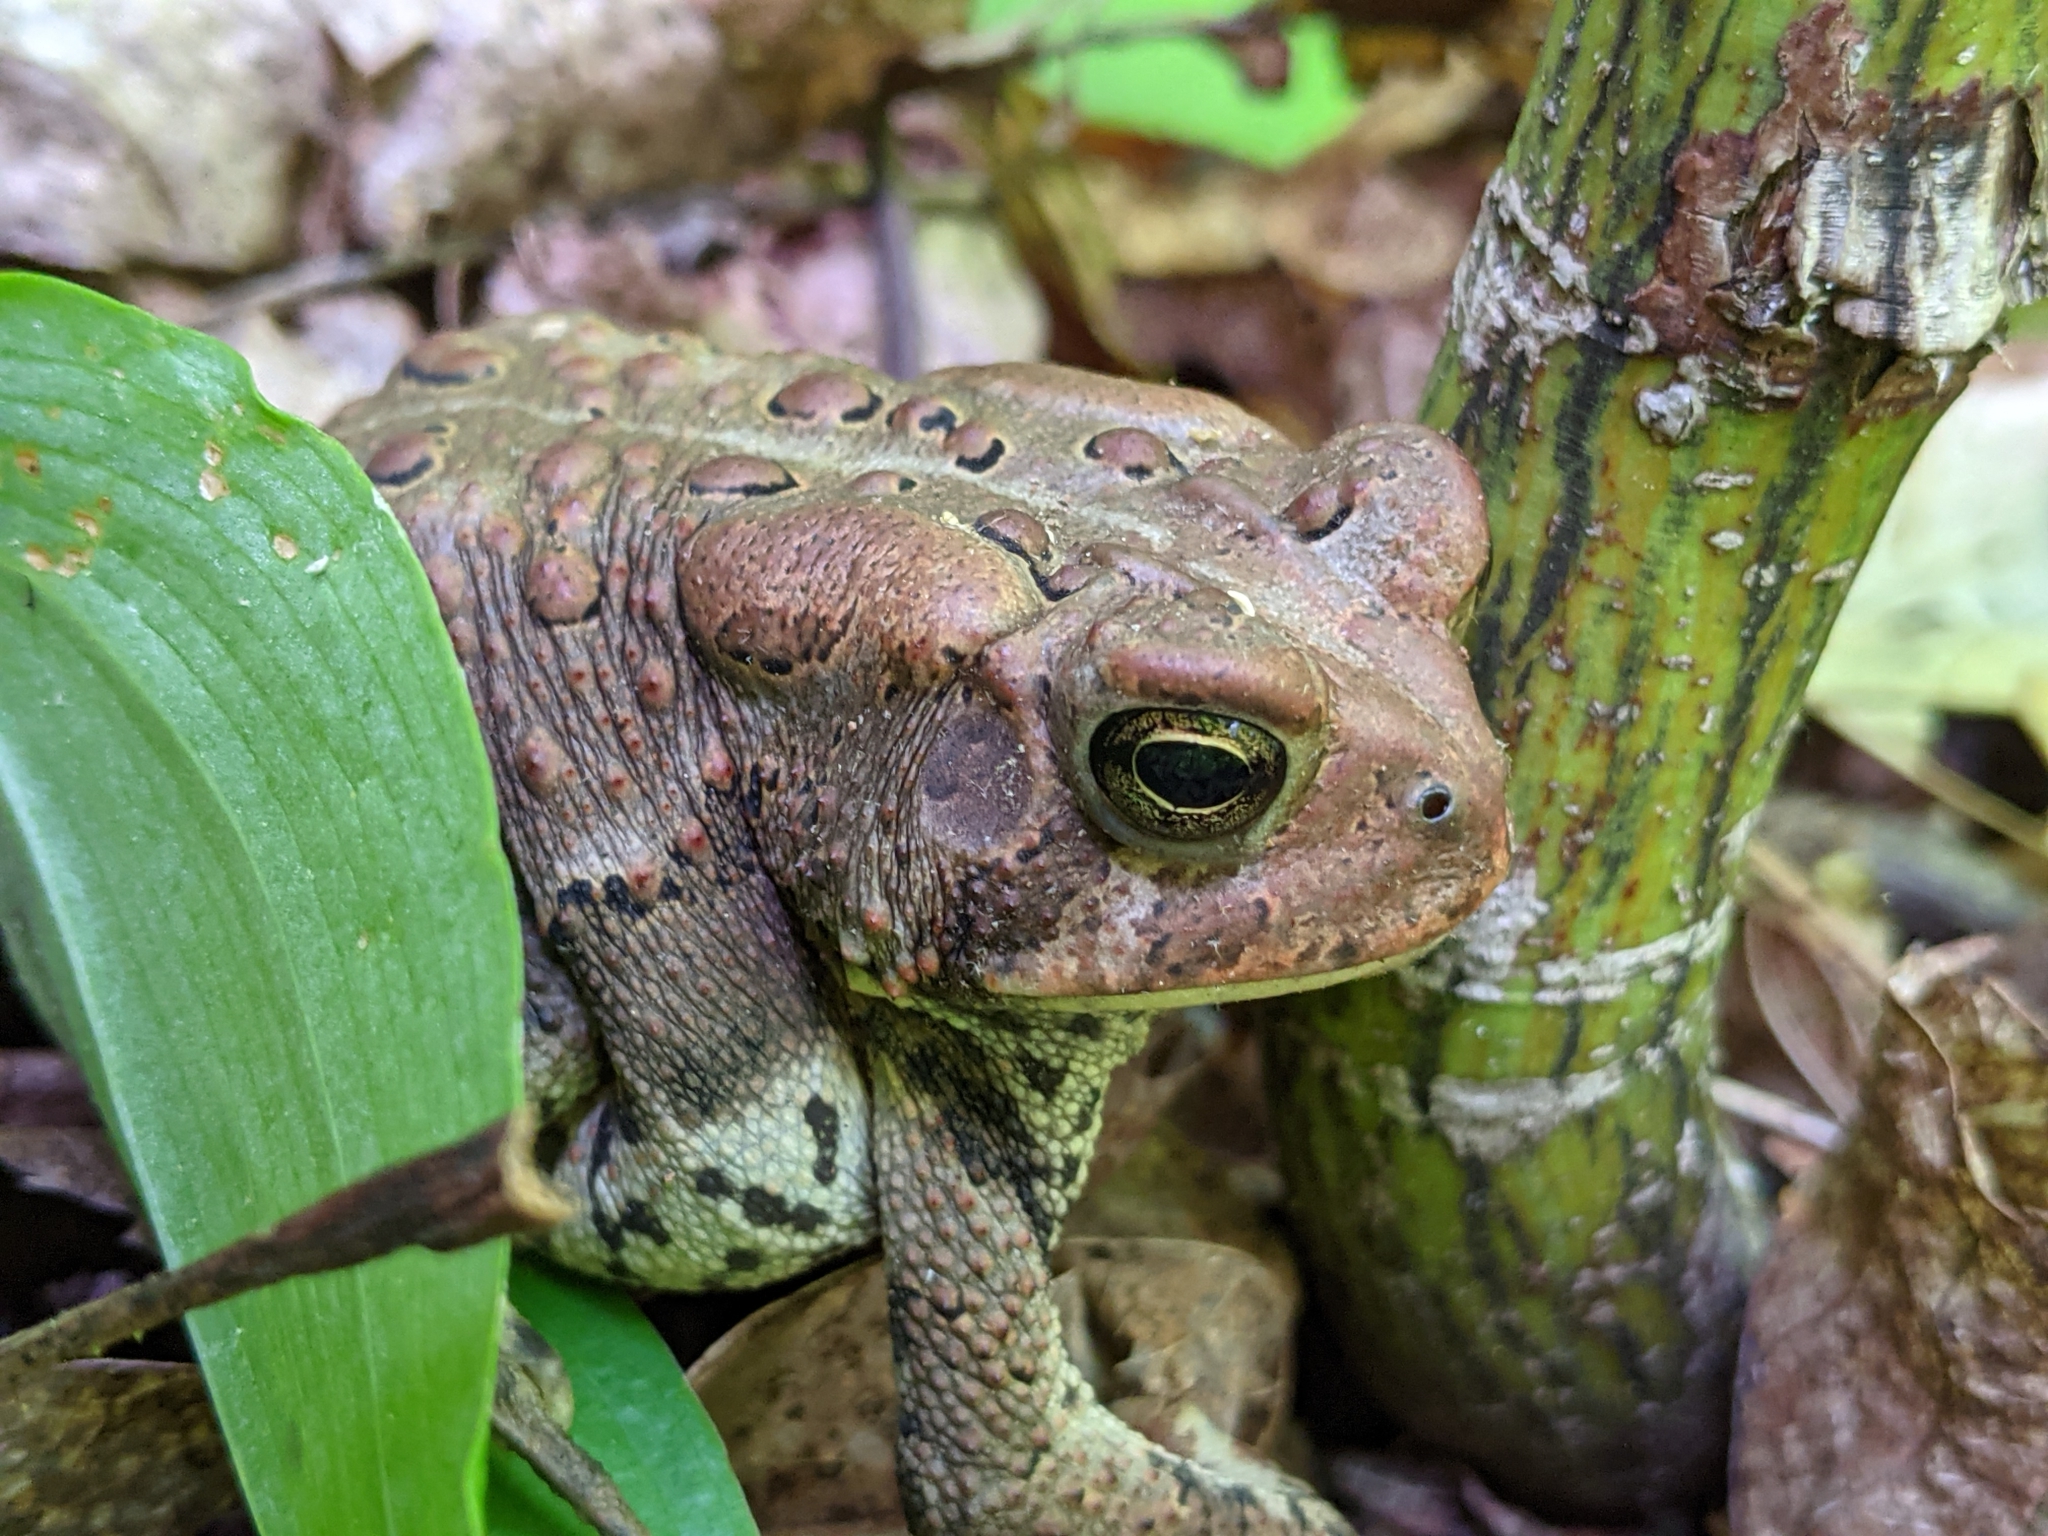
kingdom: Animalia
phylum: Chordata
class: Amphibia
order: Anura
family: Bufonidae
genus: Anaxyrus
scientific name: Anaxyrus americanus
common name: American toad
